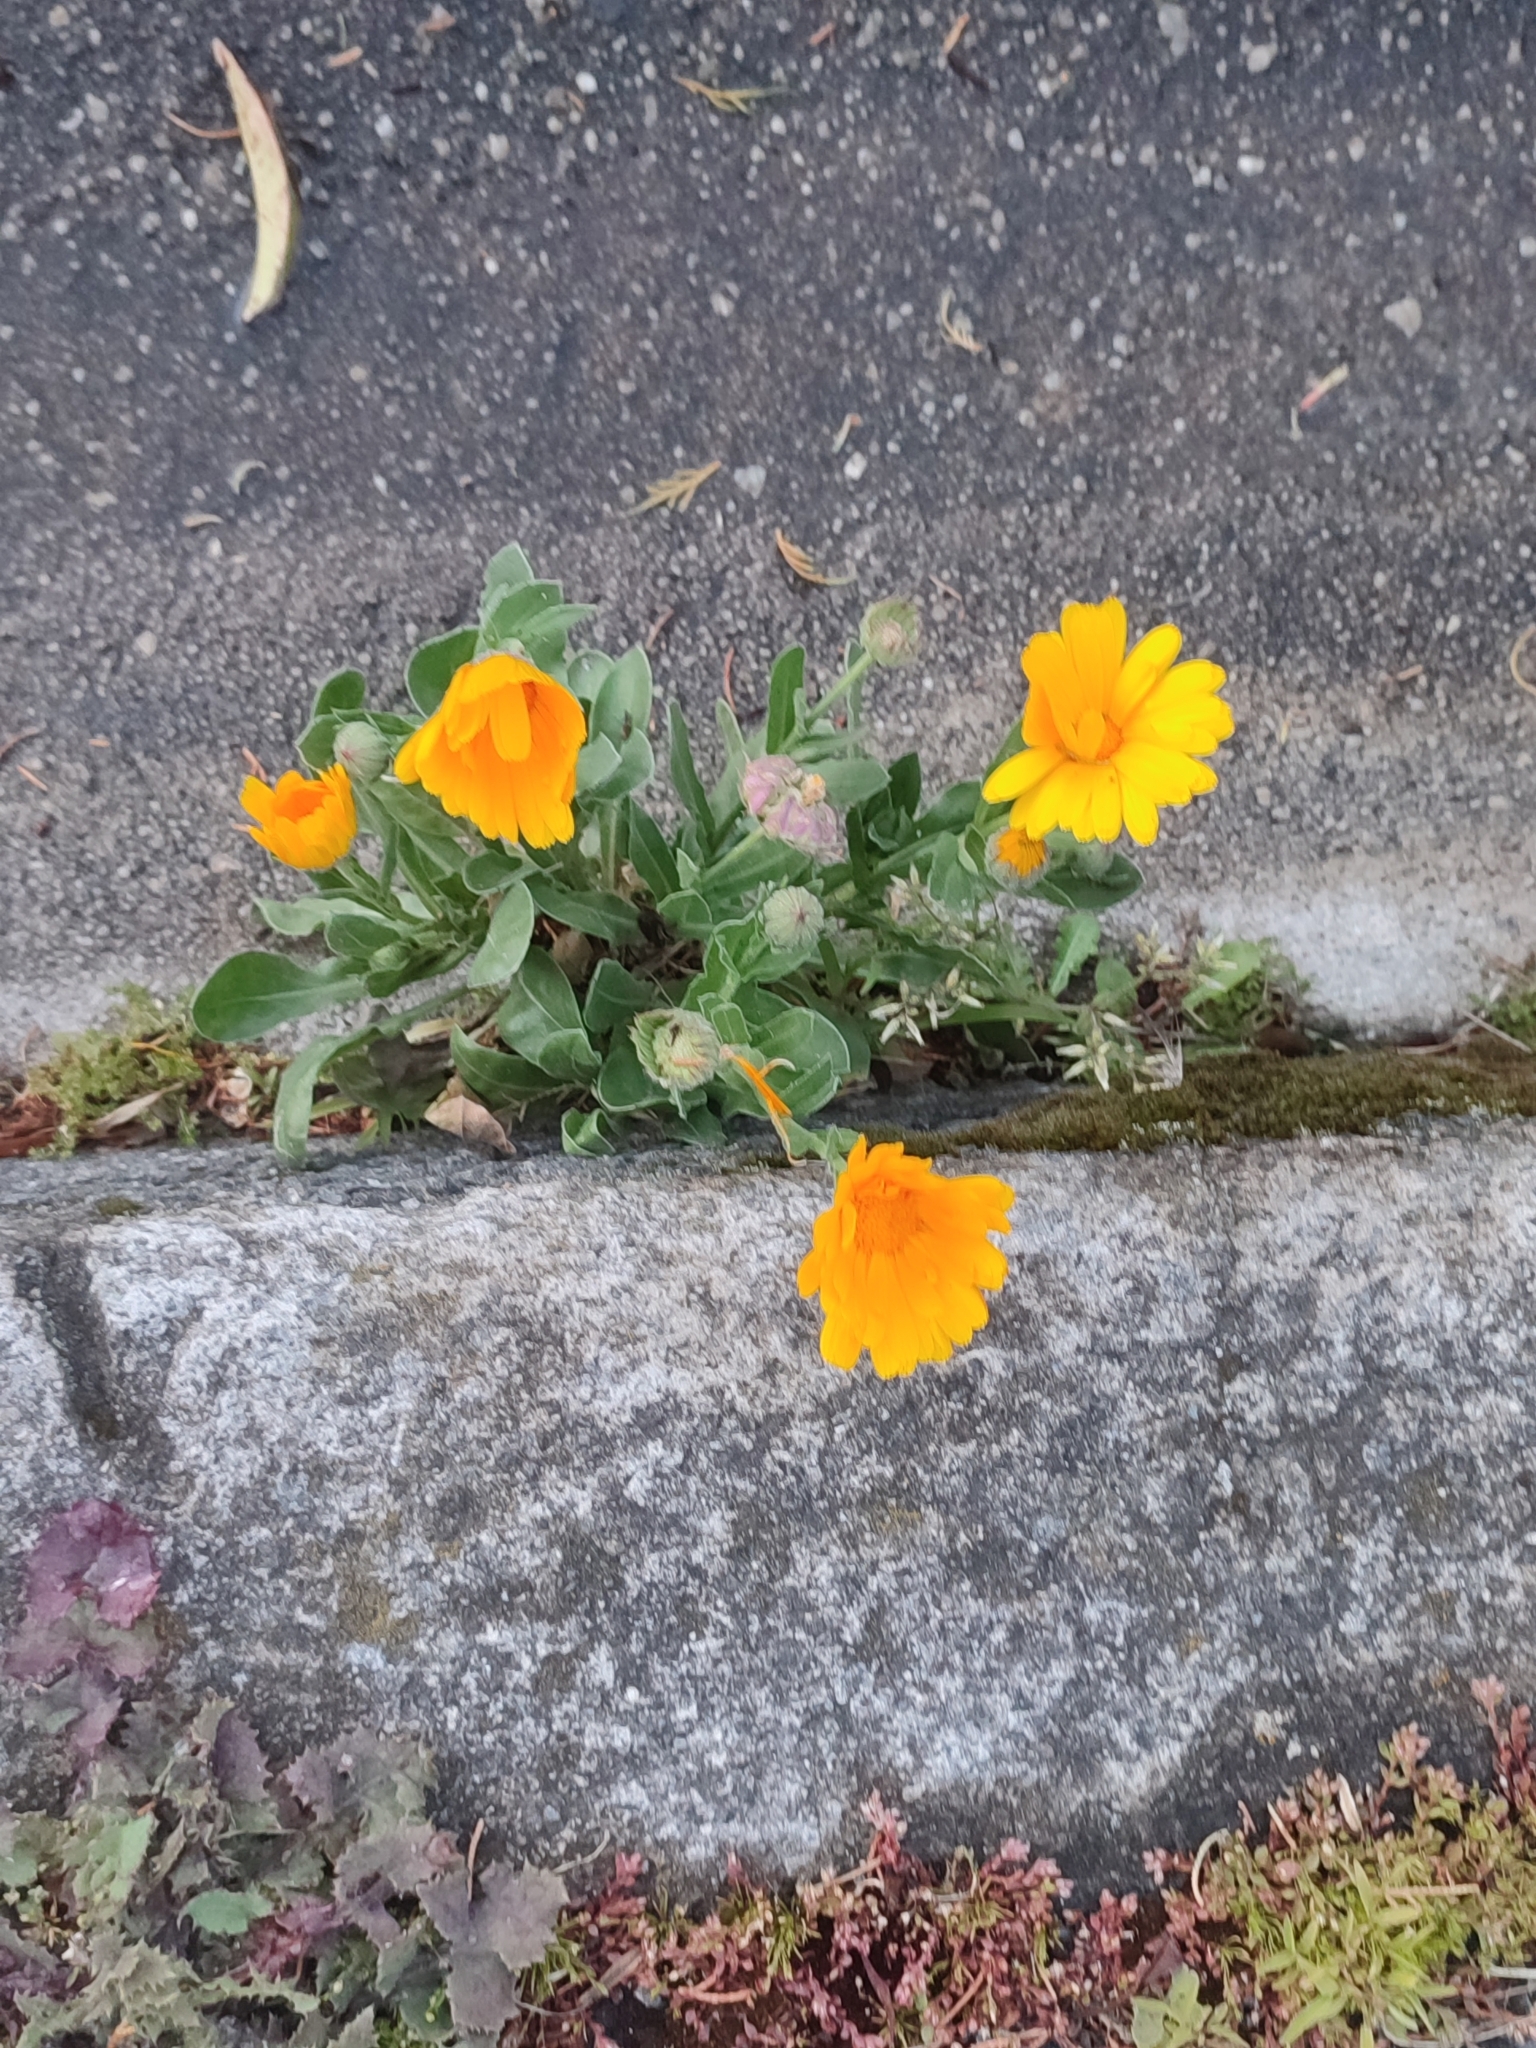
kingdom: Plantae
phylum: Tracheophyta
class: Magnoliopsida
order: Asterales
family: Asteraceae
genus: Calendula
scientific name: Calendula officinalis
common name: Pot marigold
